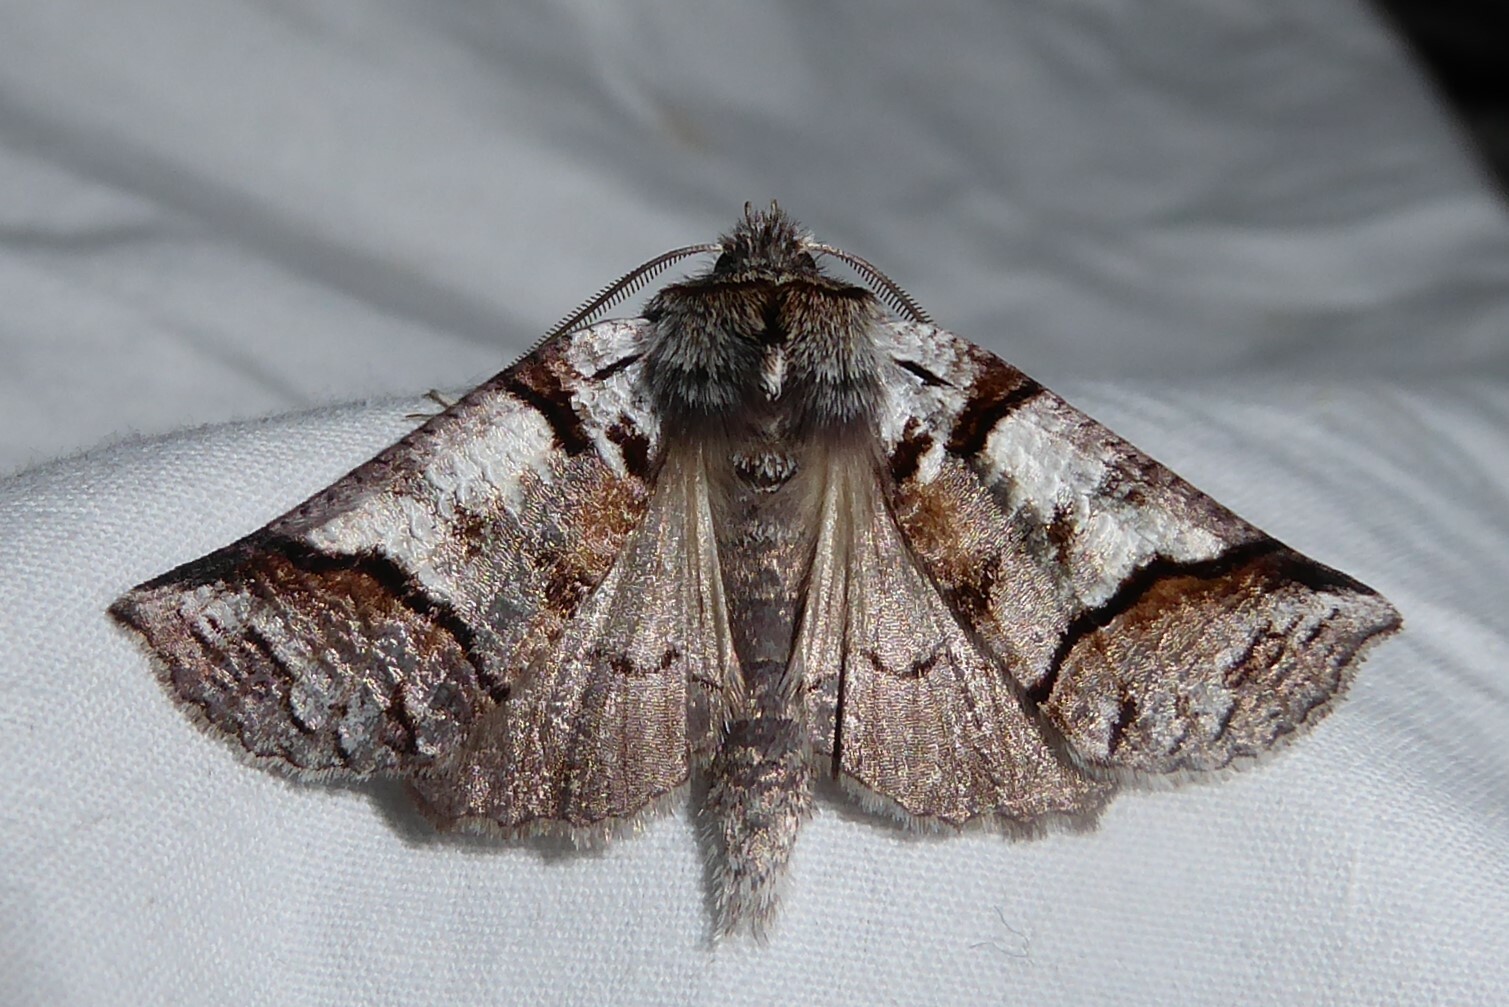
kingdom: Animalia
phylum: Arthropoda
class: Insecta
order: Lepidoptera
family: Geometridae
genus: Declana
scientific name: Declana
